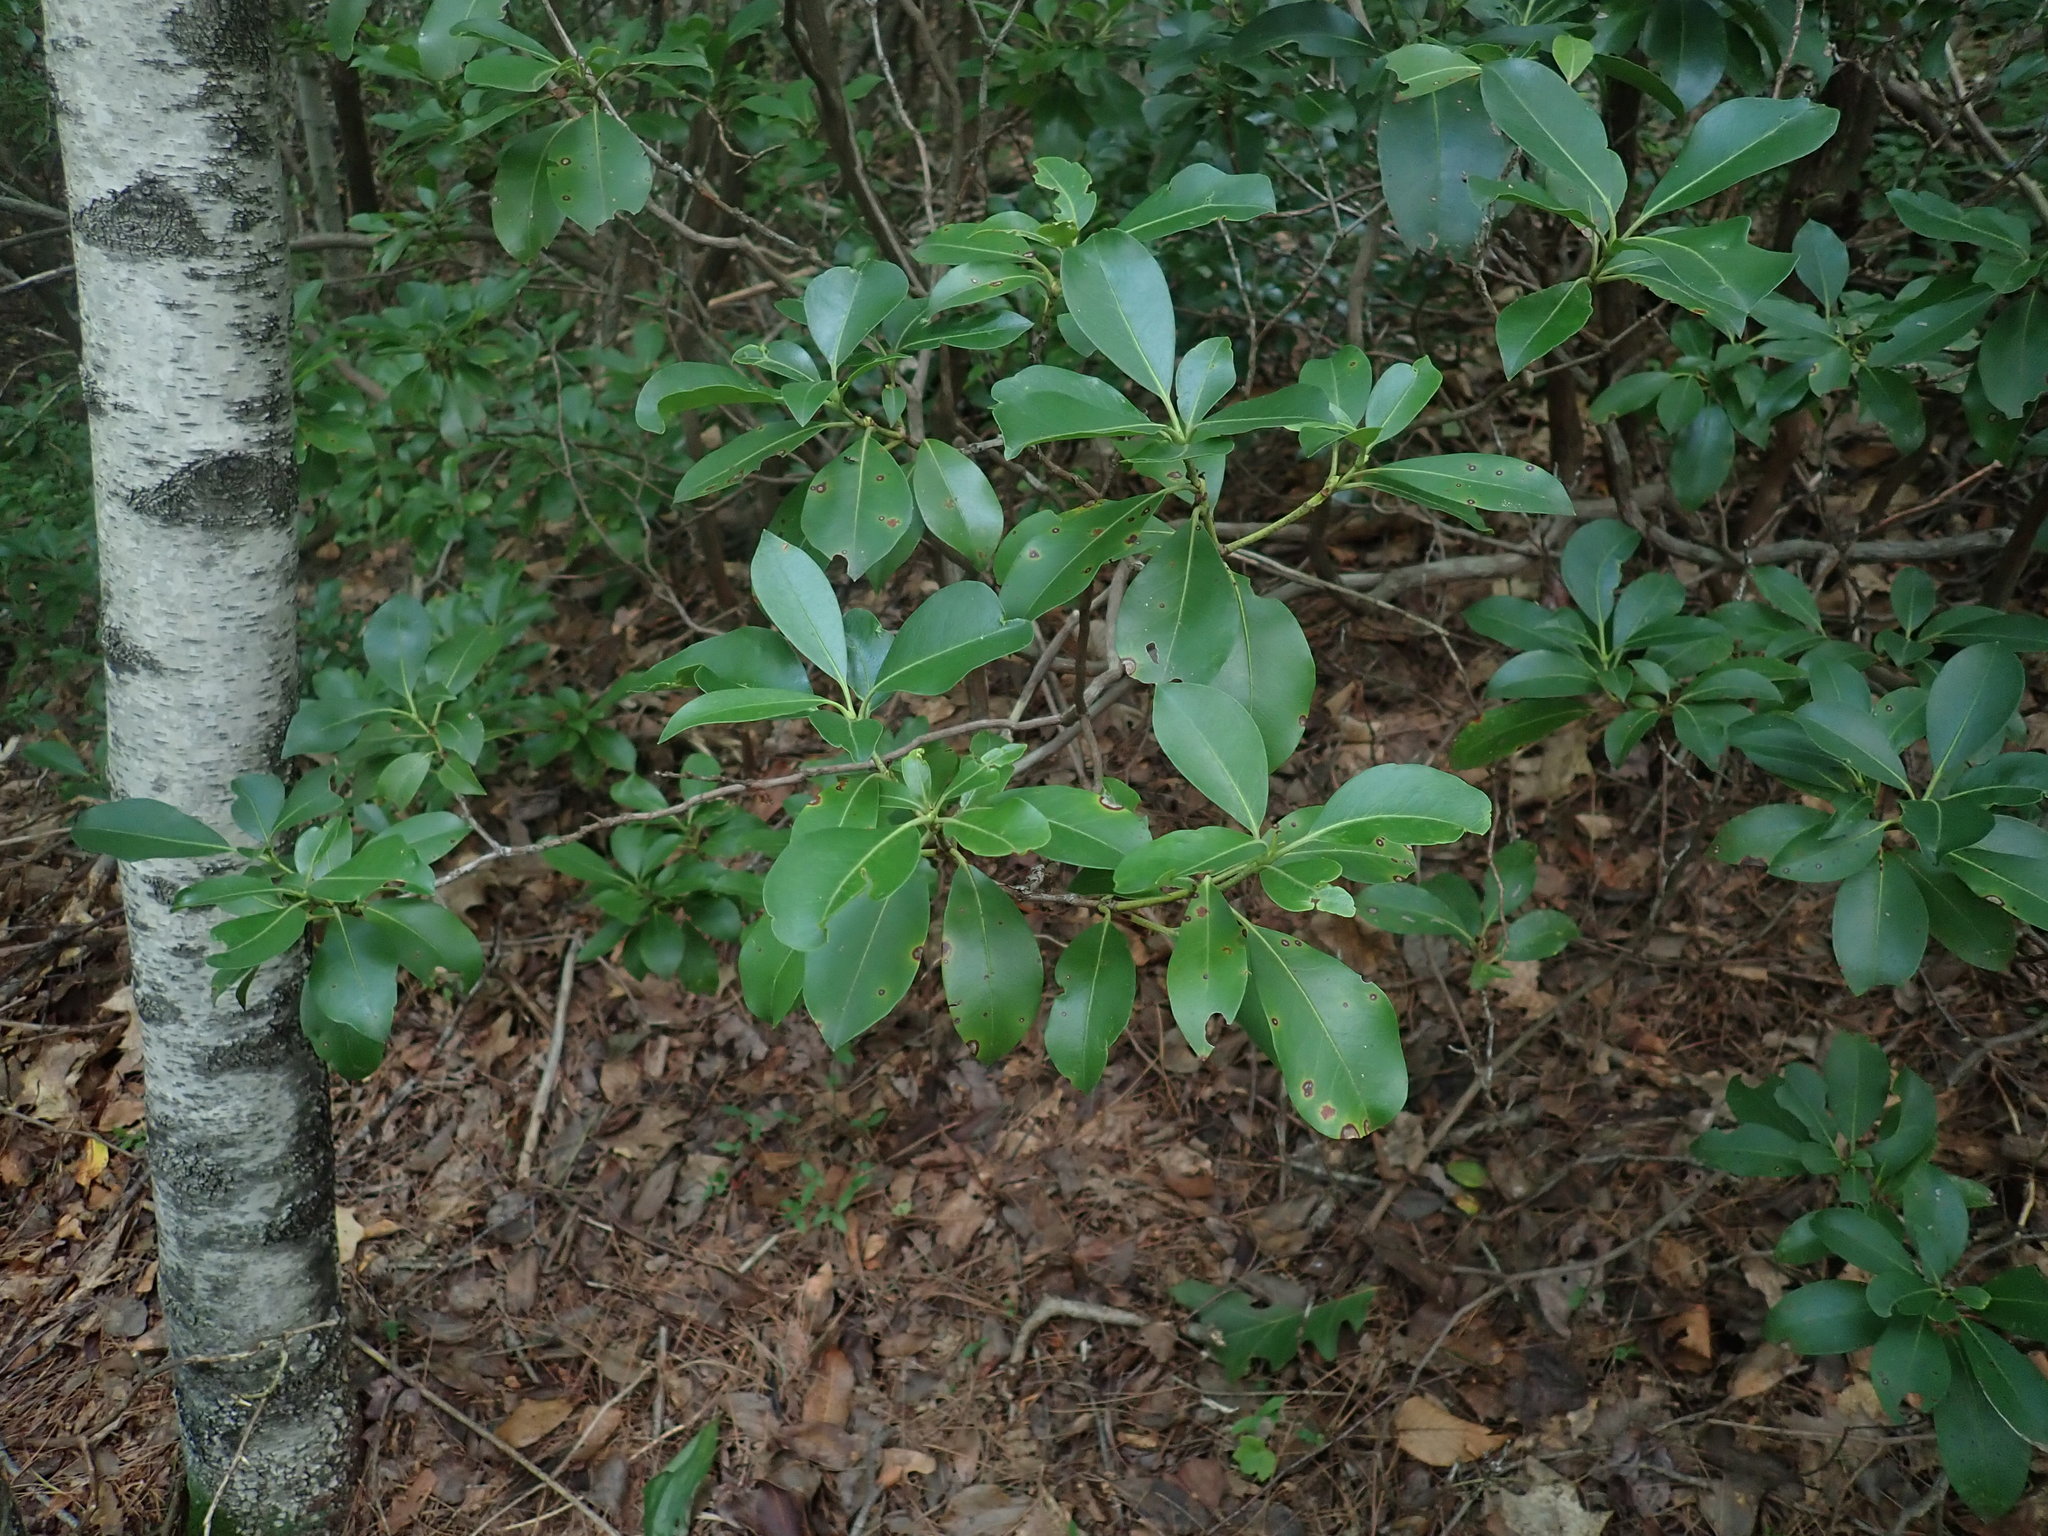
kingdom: Plantae
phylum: Tracheophyta
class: Magnoliopsida
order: Ericales
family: Ericaceae
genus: Kalmia
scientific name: Kalmia latifolia
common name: Mountain-laurel
